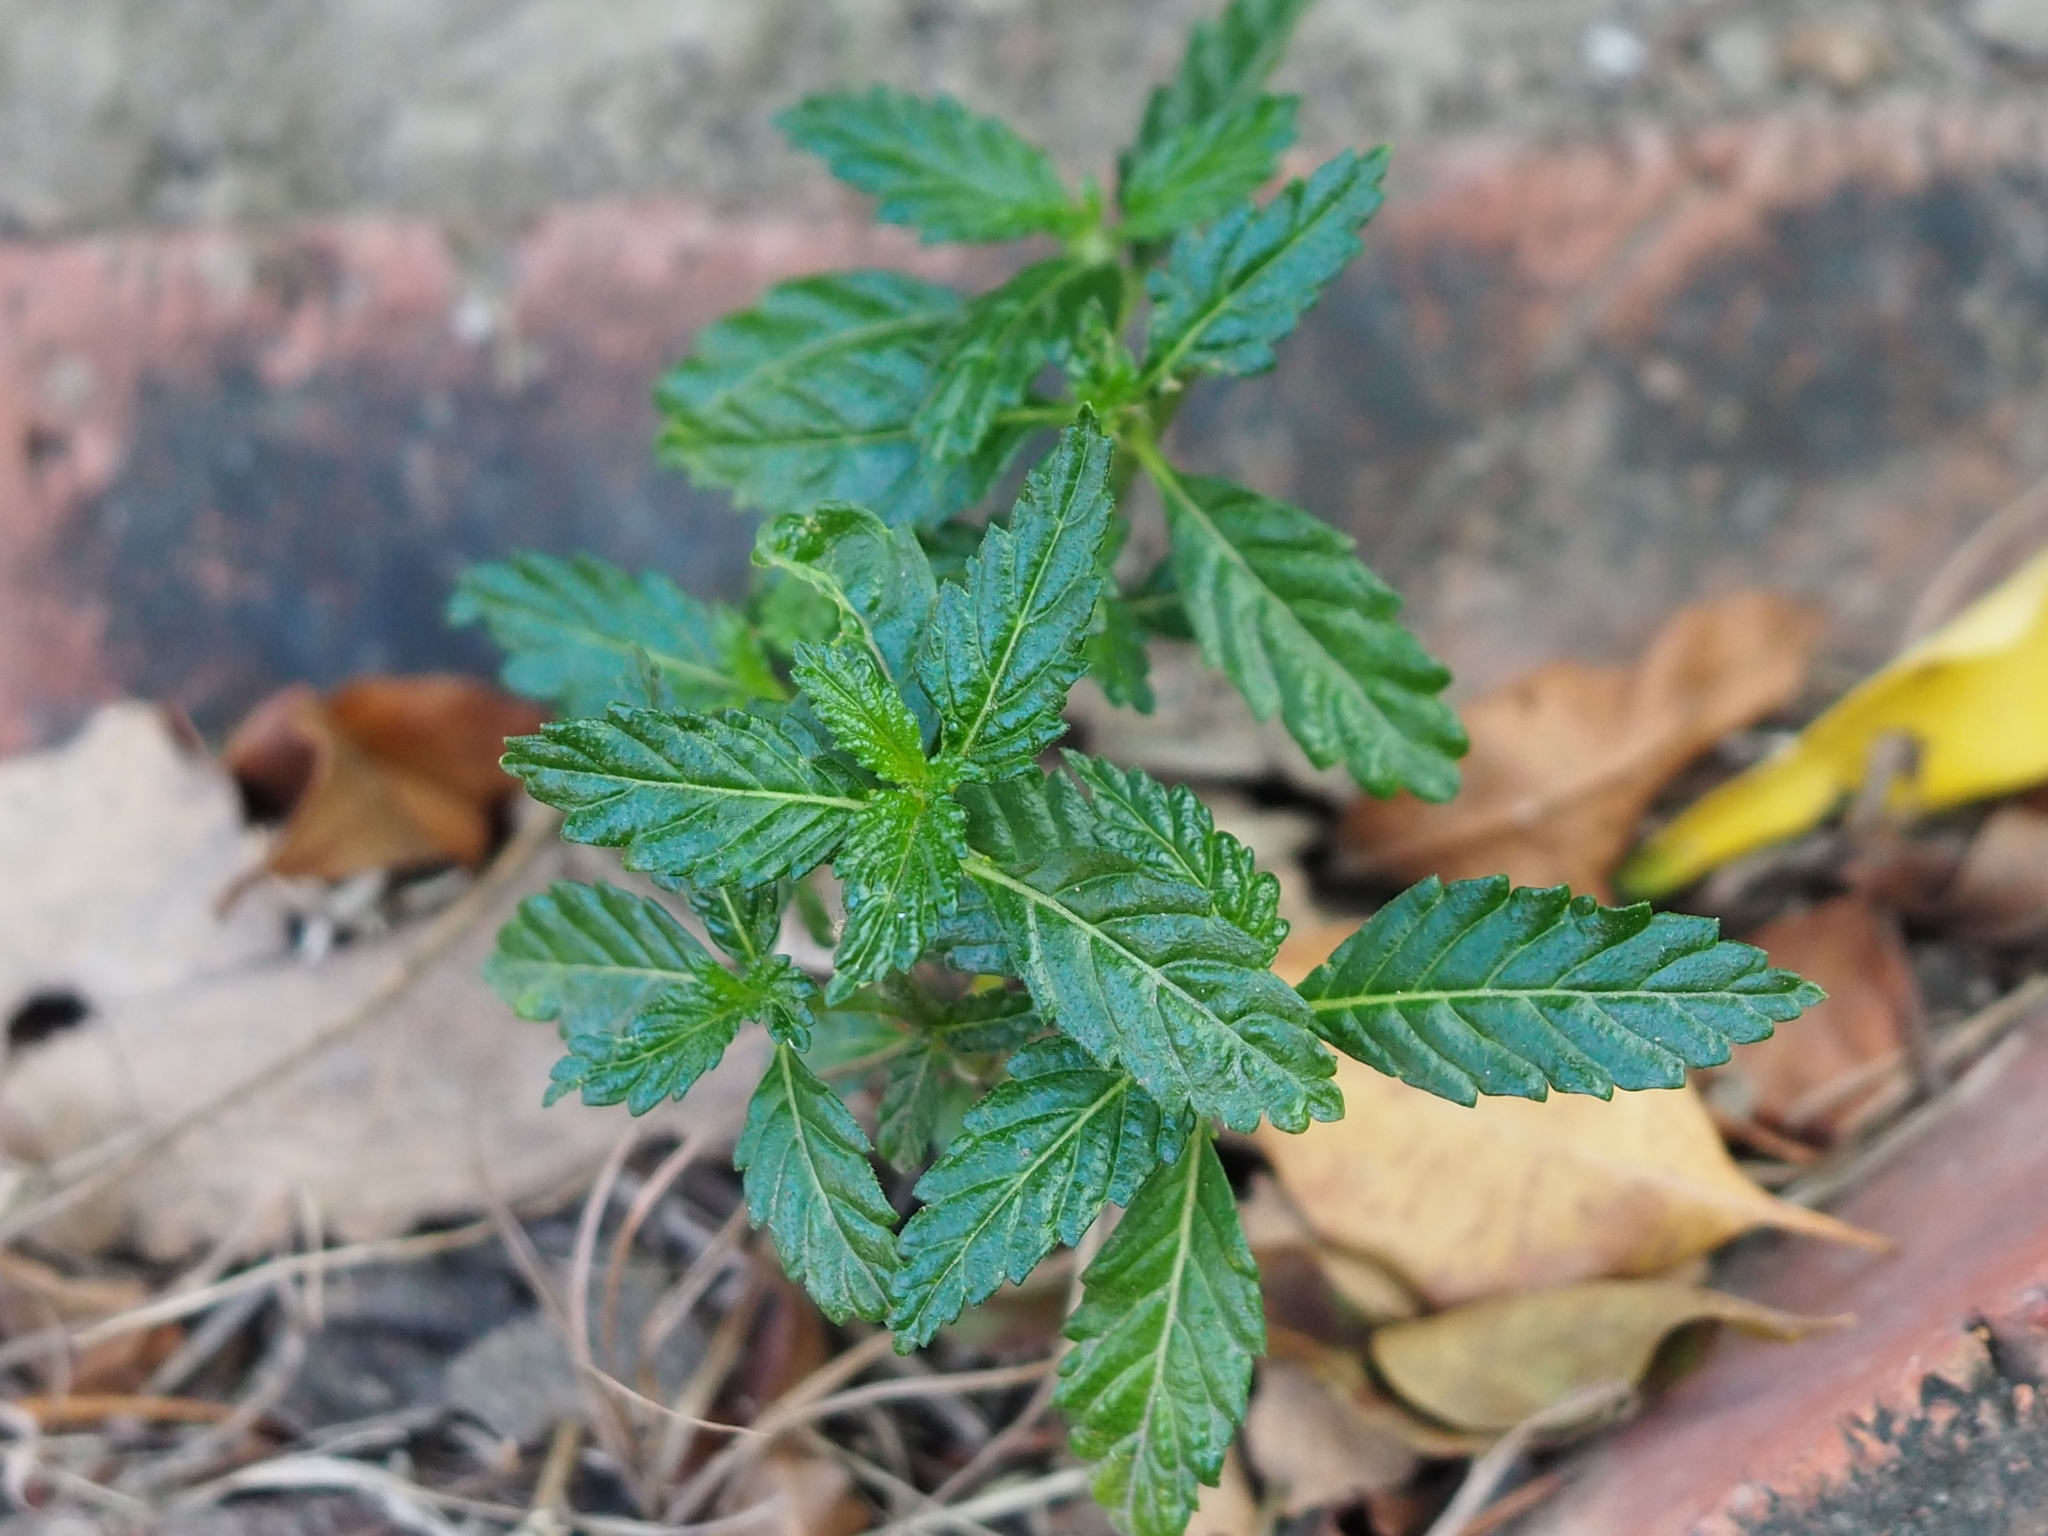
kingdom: Plantae
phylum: Tracheophyta
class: Magnoliopsida
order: Malpighiales
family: Turneraceae
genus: Turnera
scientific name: Turnera ulmifolia
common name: Ramgoat dashalong
